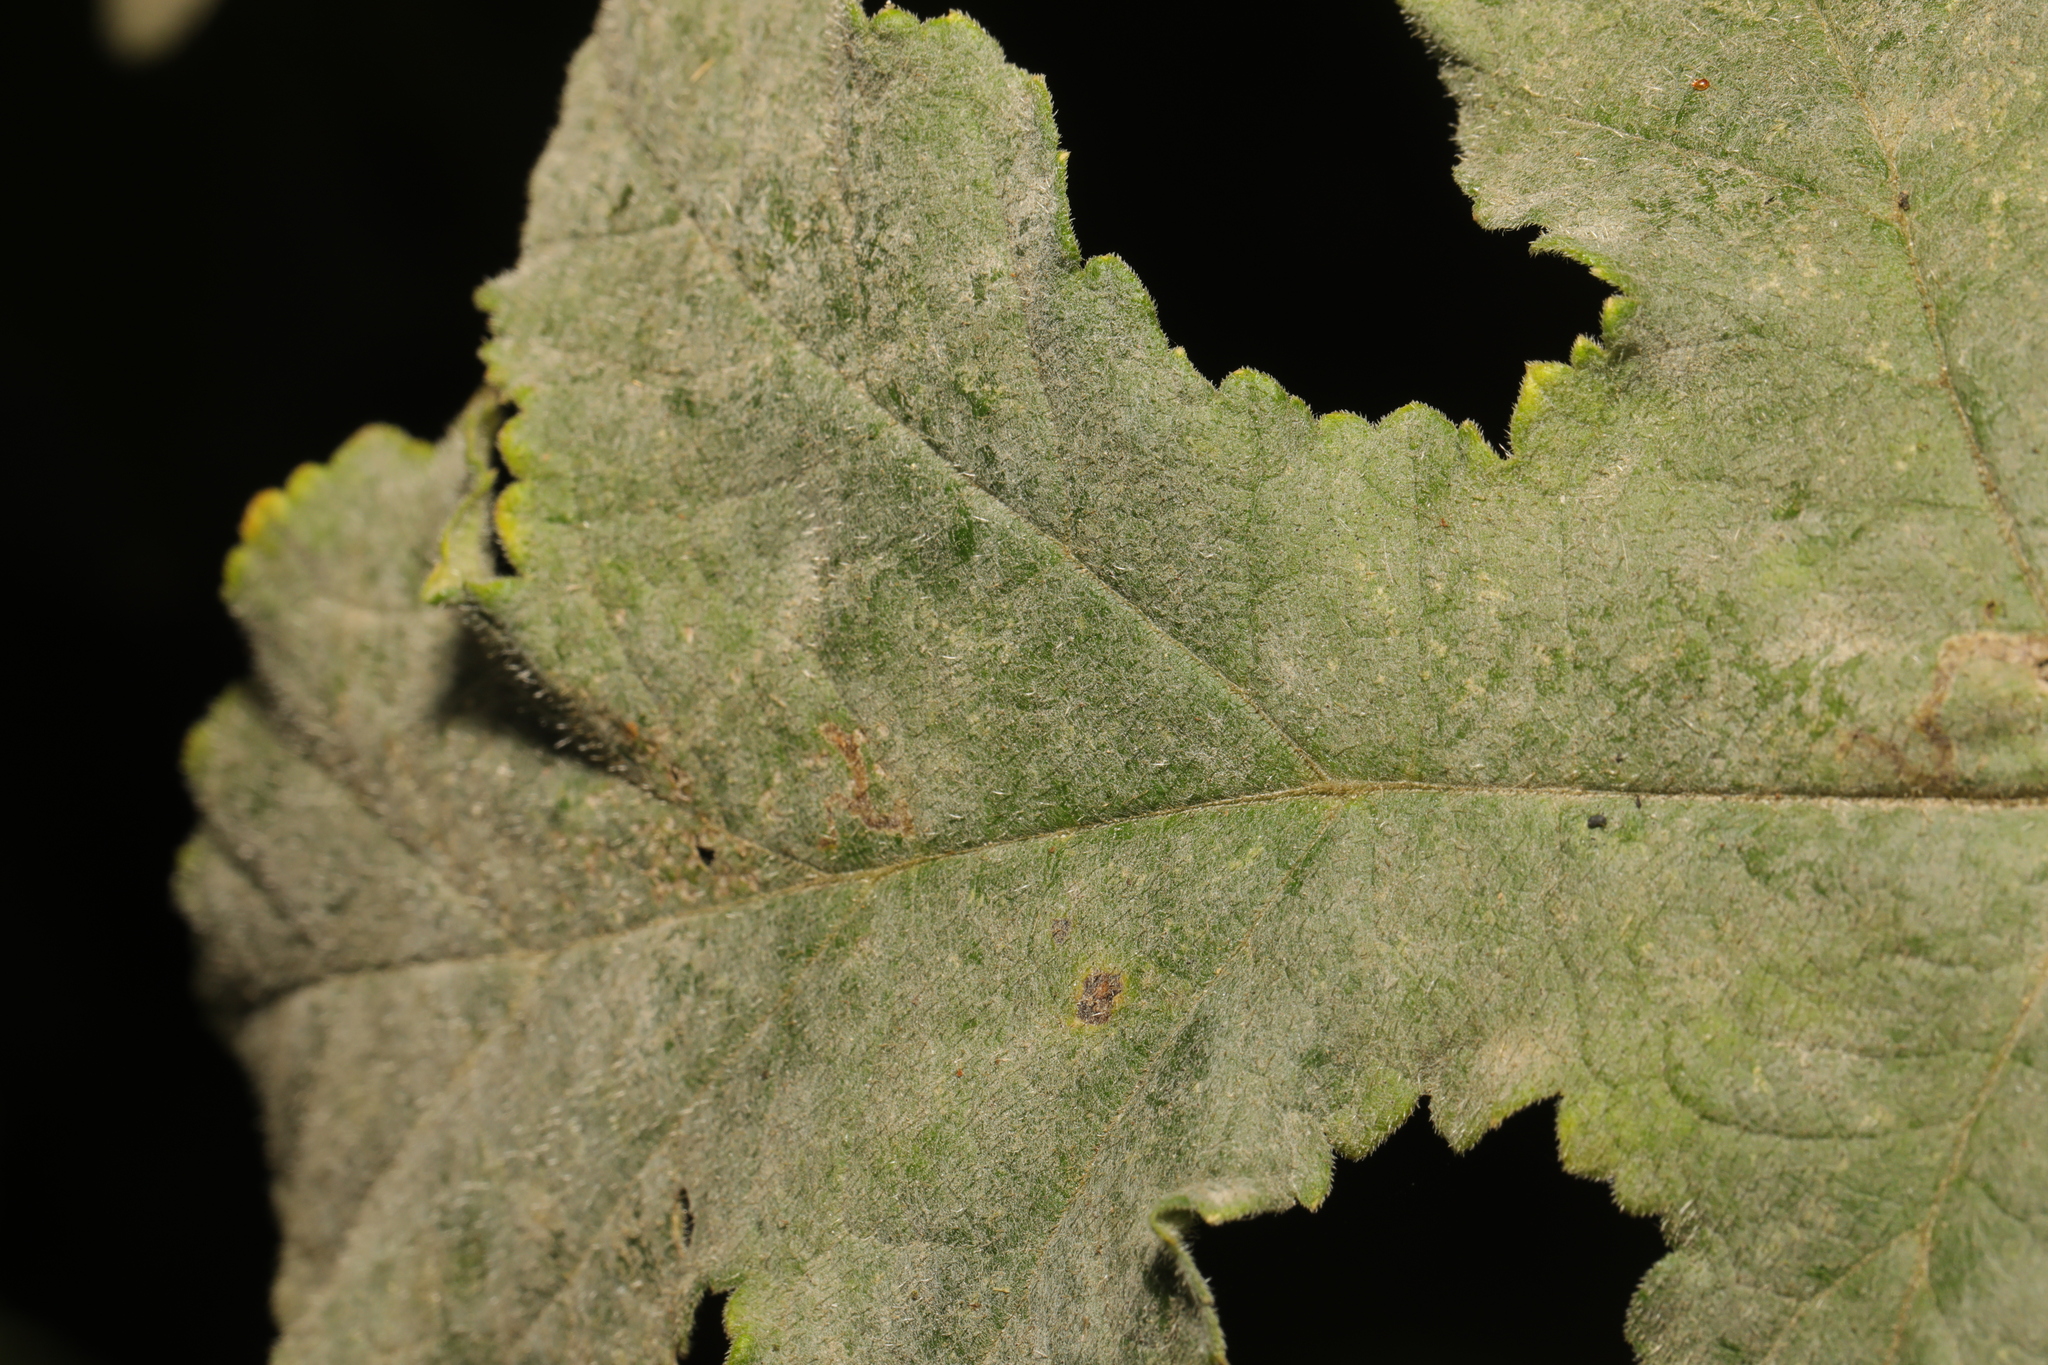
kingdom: Fungi
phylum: Ascomycota
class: Leotiomycetes
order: Helotiales
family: Erysiphaceae
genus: Erysiphe
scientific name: Erysiphe heraclei
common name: Umbellifer mildew
